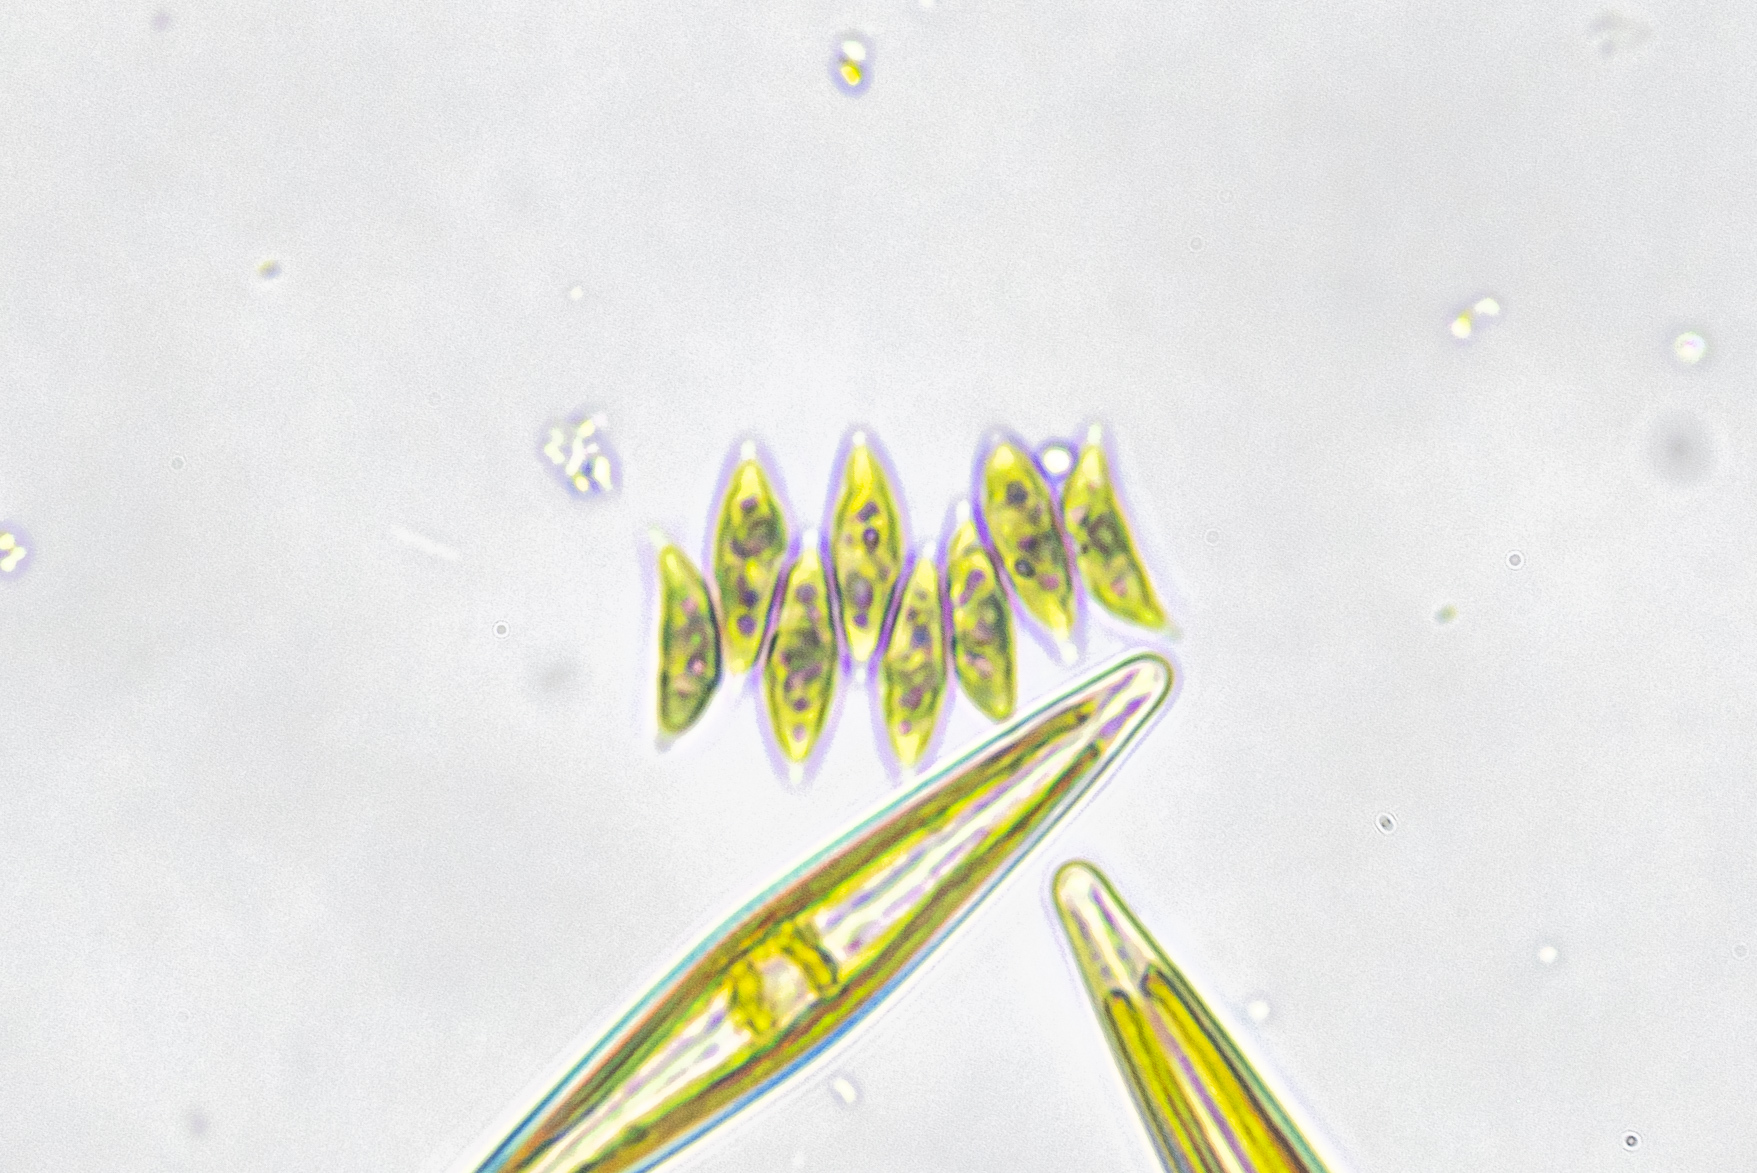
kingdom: Plantae
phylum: Chlorophyta
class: Chlorophyceae
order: Sphaeropleales
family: Scenedesmaceae
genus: Tetradesmus
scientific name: Tetradesmus obliquus
